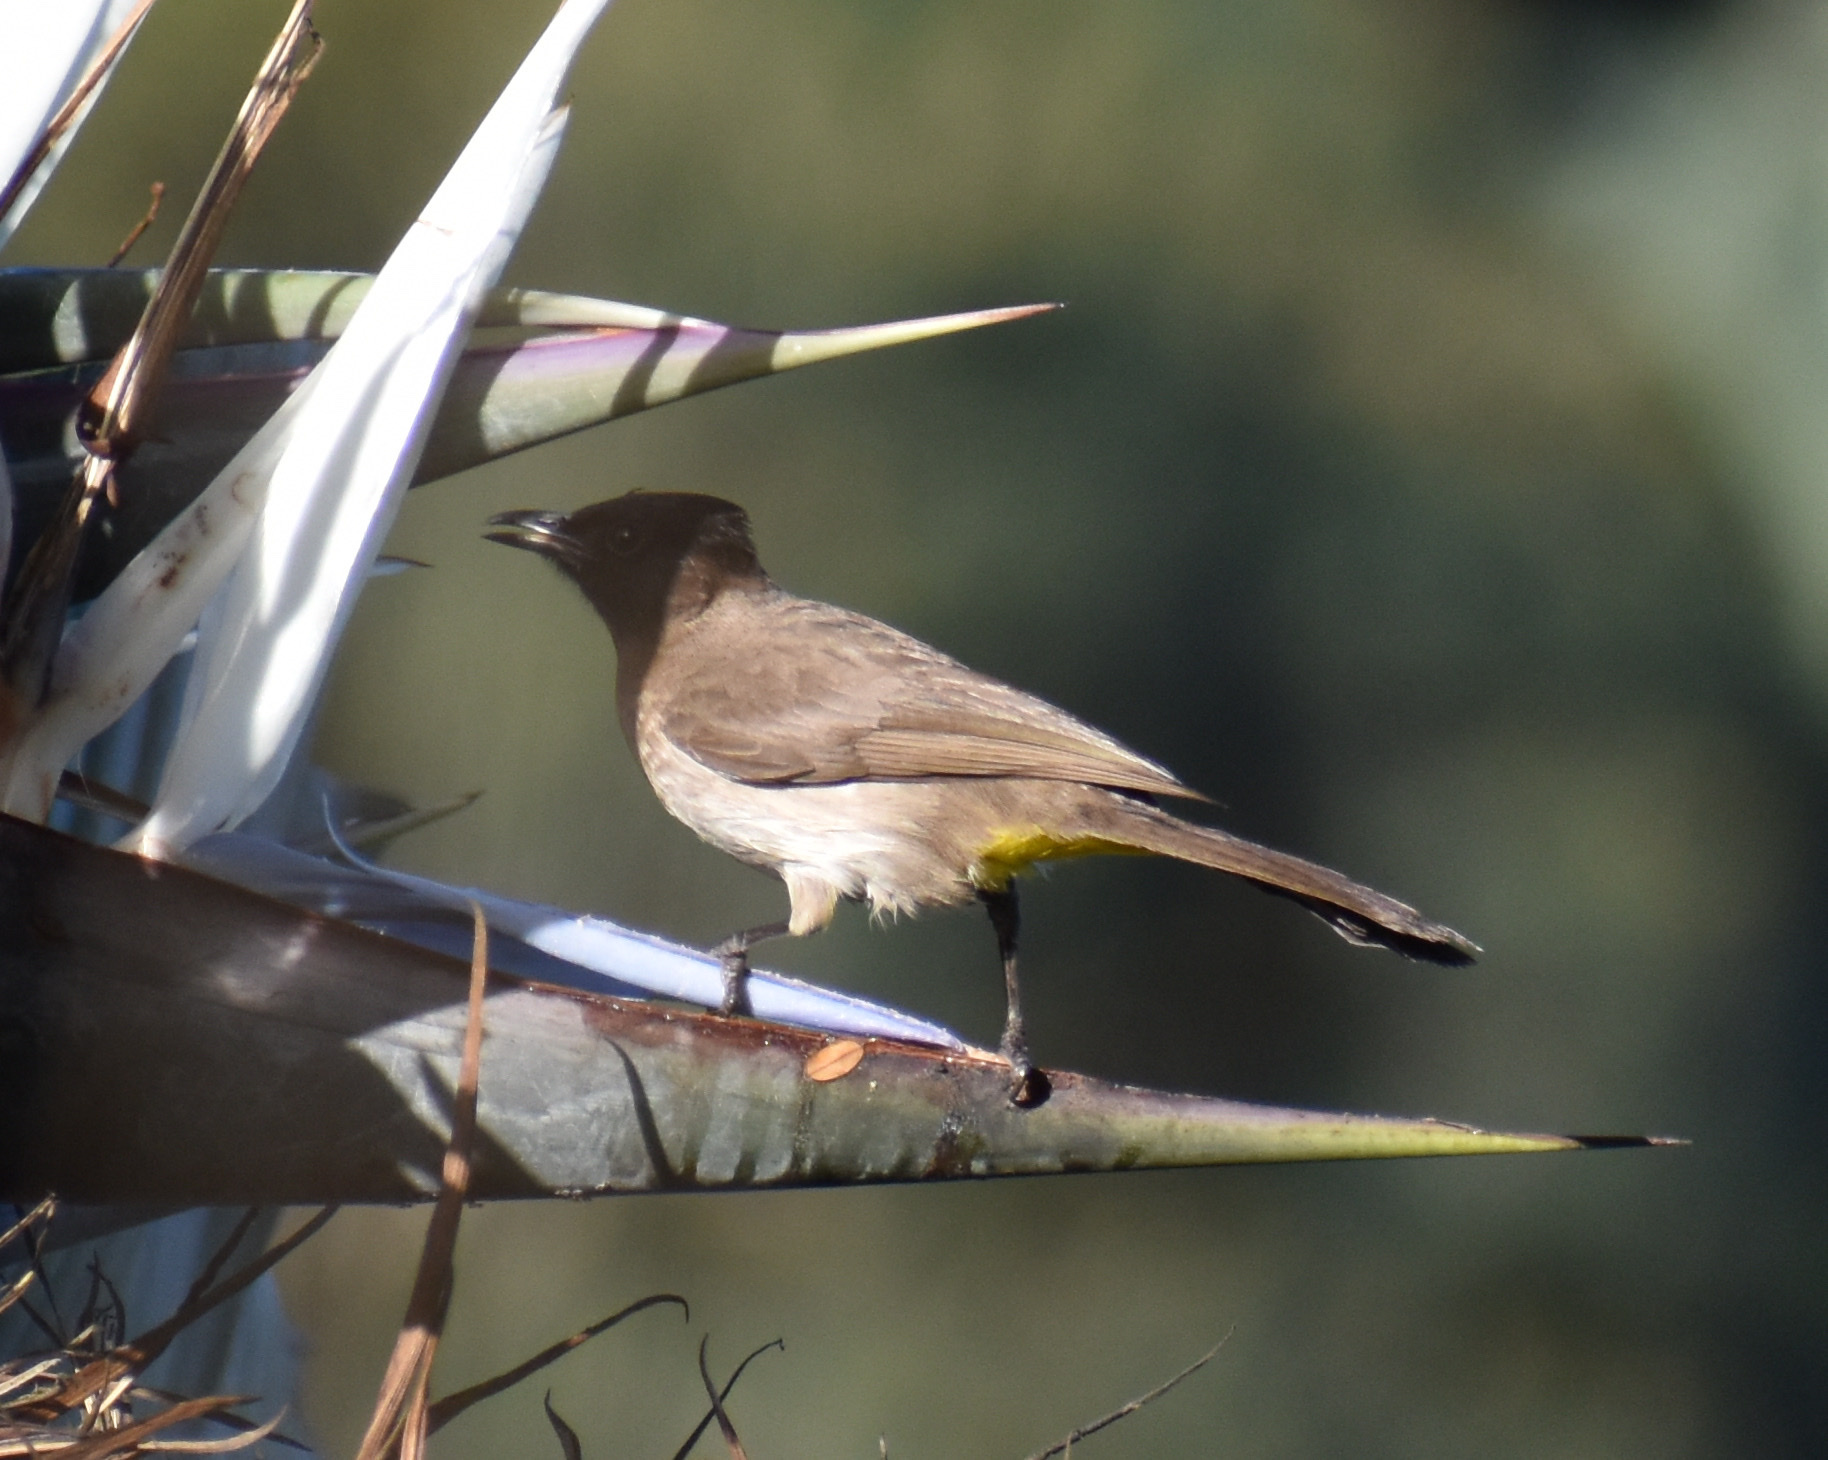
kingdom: Animalia
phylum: Chordata
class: Aves
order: Passeriformes
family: Pycnonotidae
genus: Pycnonotus
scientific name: Pycnonotus barbatus
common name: Common bulbul
